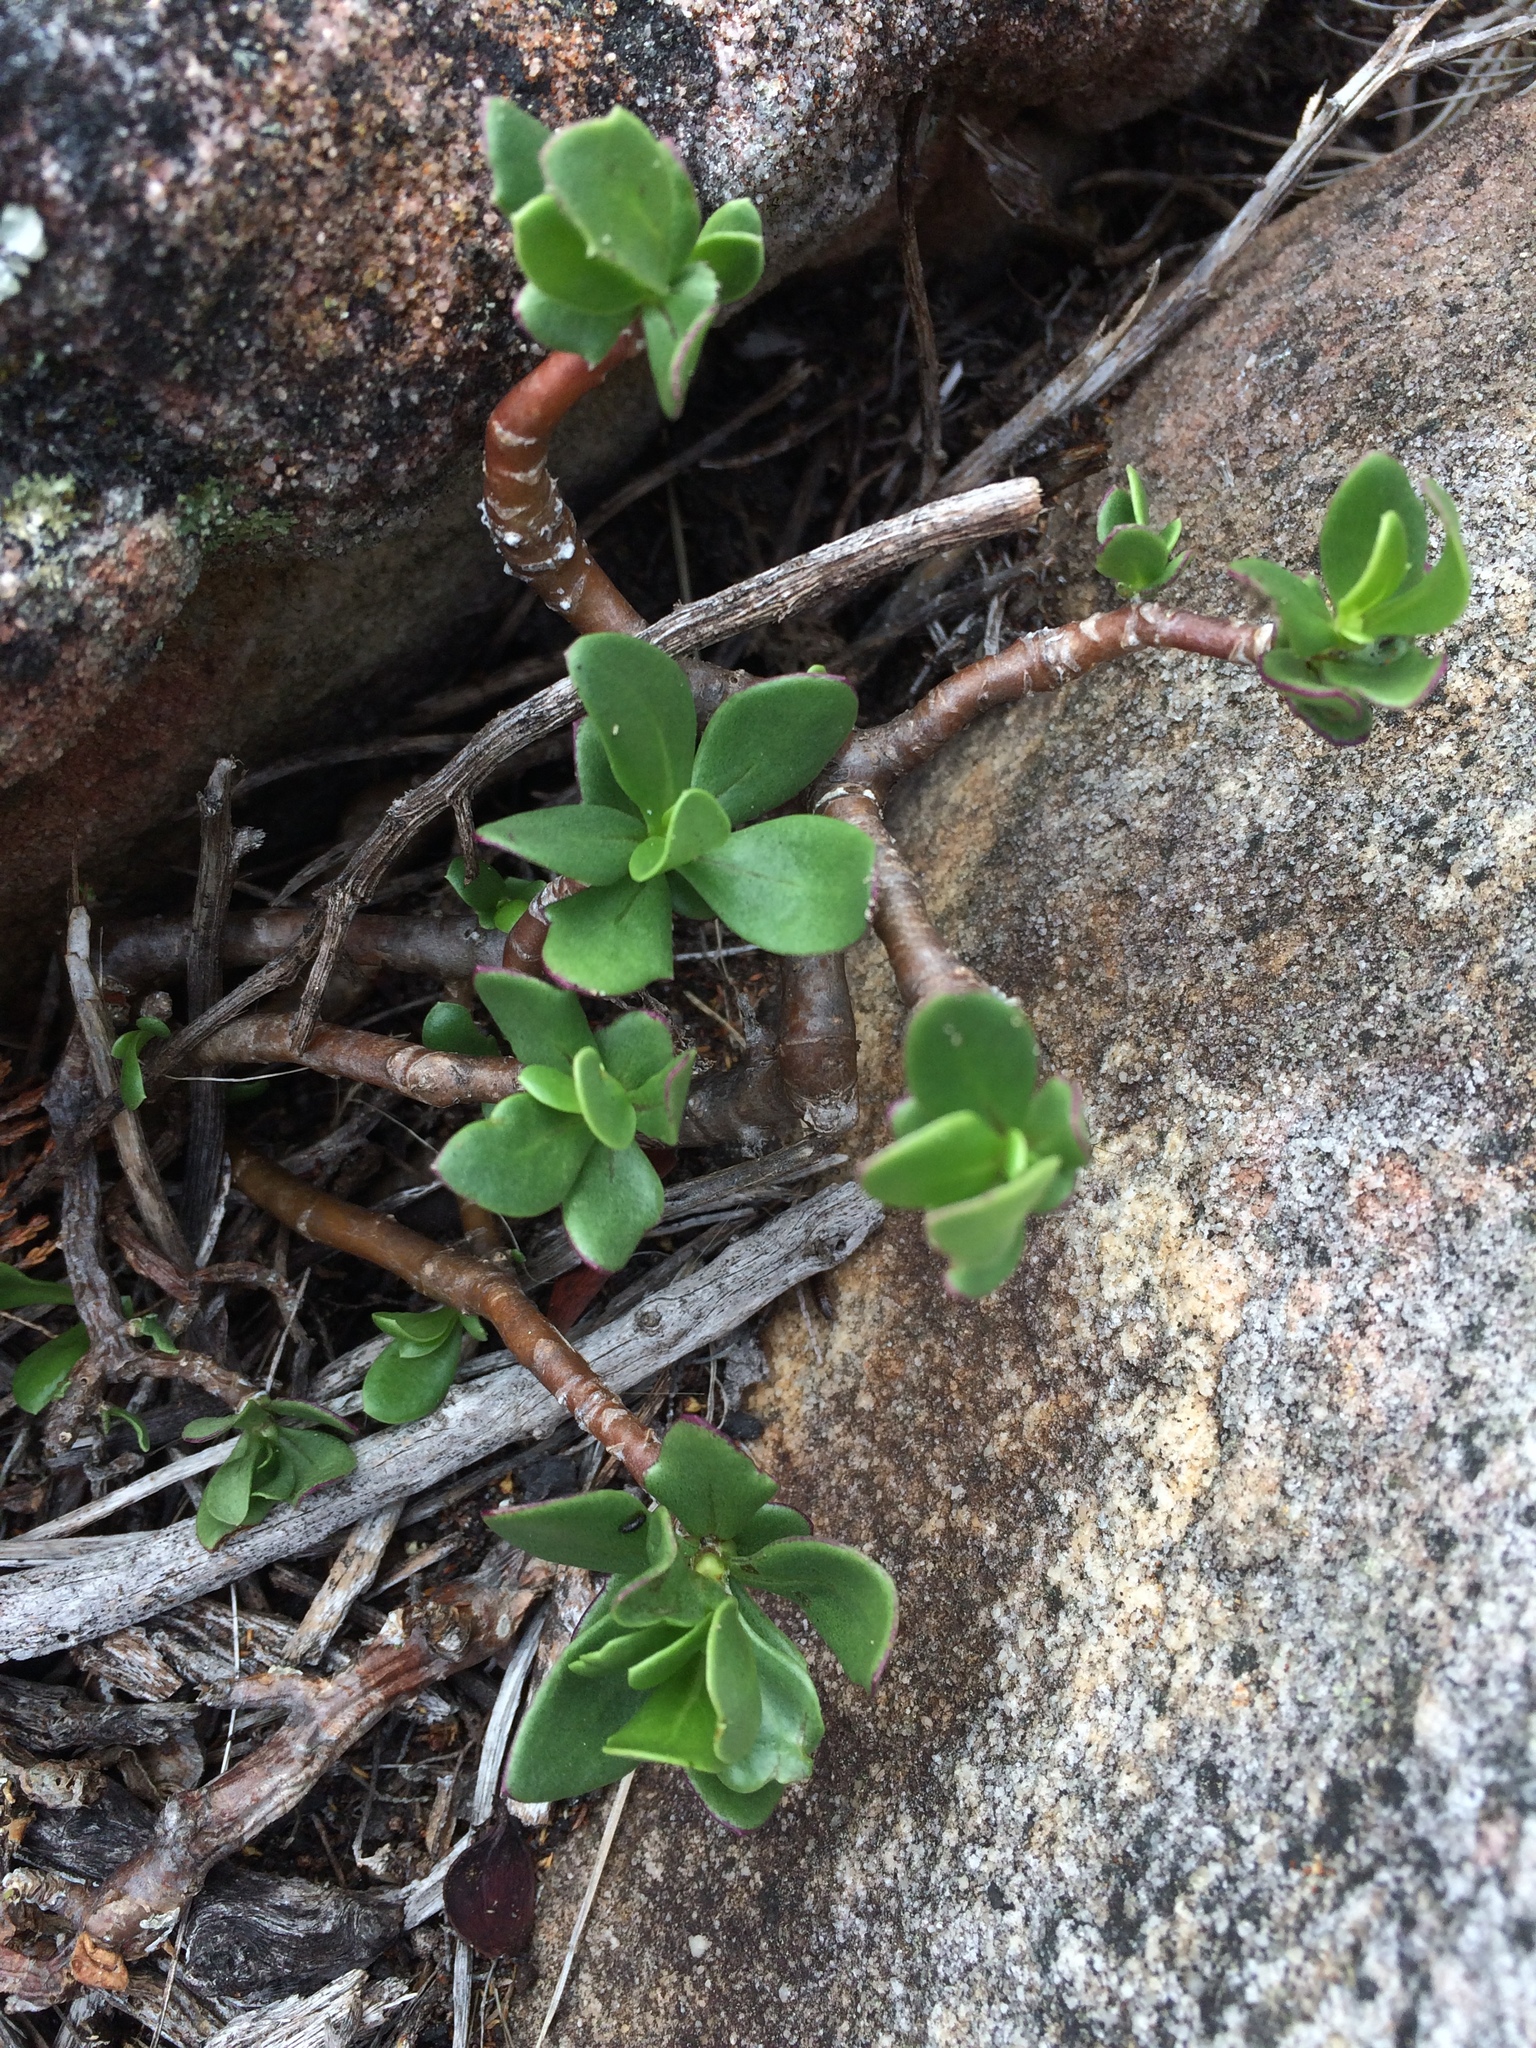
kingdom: Plantae
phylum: Tracheophyta
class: Magnoliopsida
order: Asterales
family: Asteraceae
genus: Othonna
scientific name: Othonna arborescens
